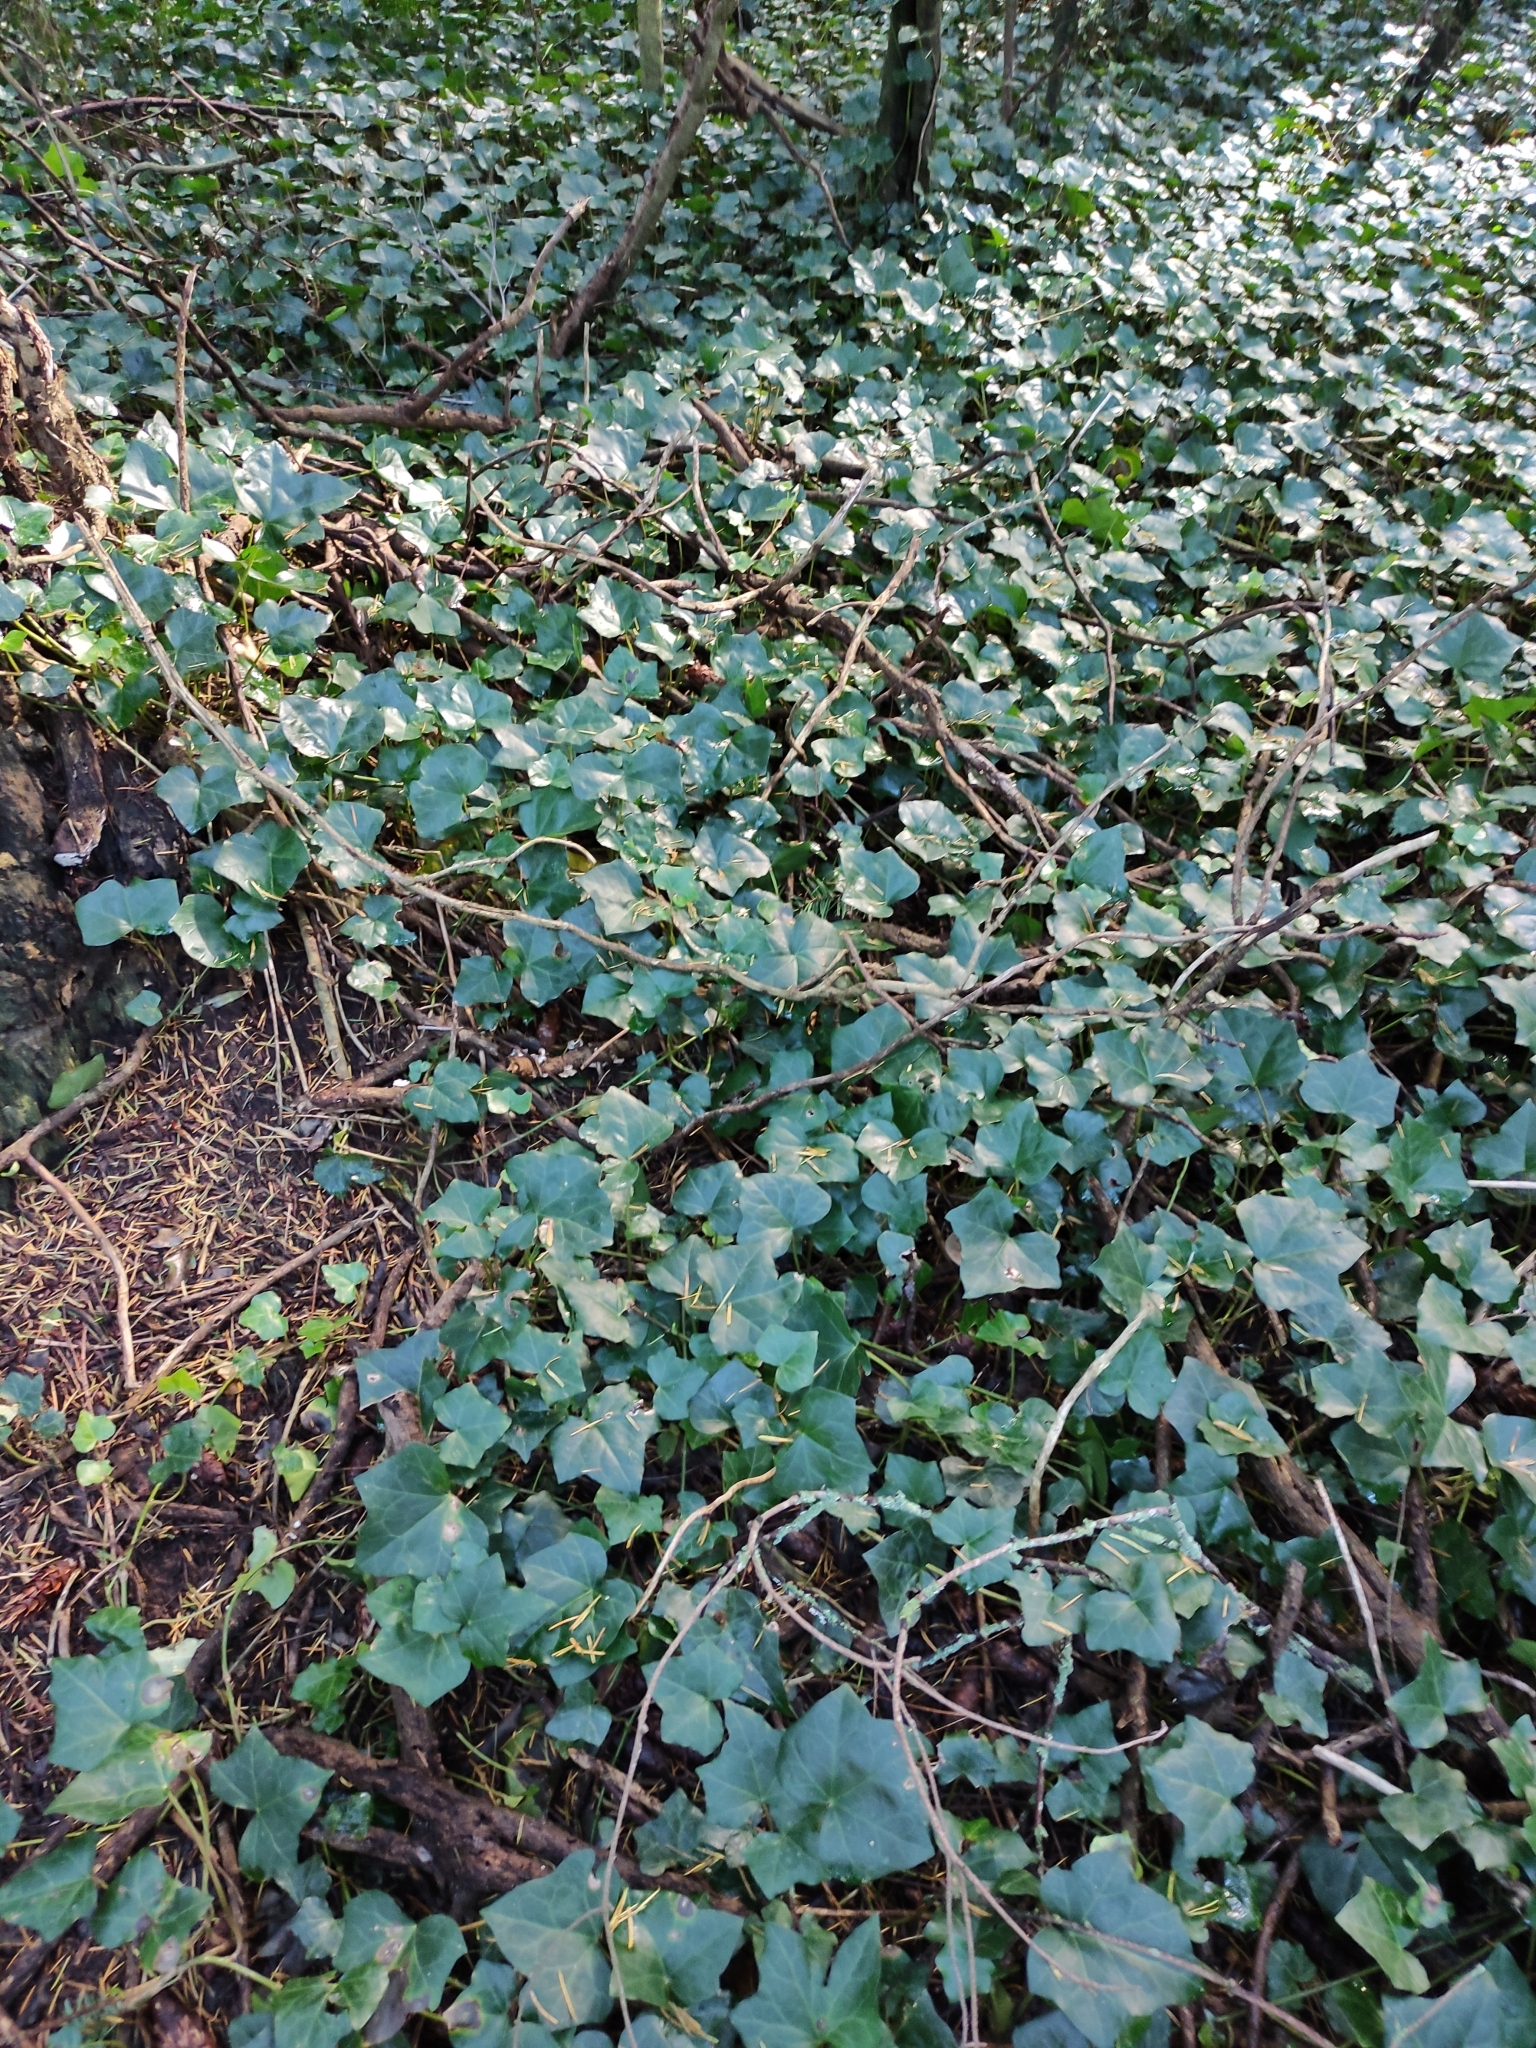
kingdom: Plantae
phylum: Tracheophyta
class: Magnoliopsida
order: Apiales
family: Araliaceae
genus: Hedera
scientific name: Hedera helix
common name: Ivy
